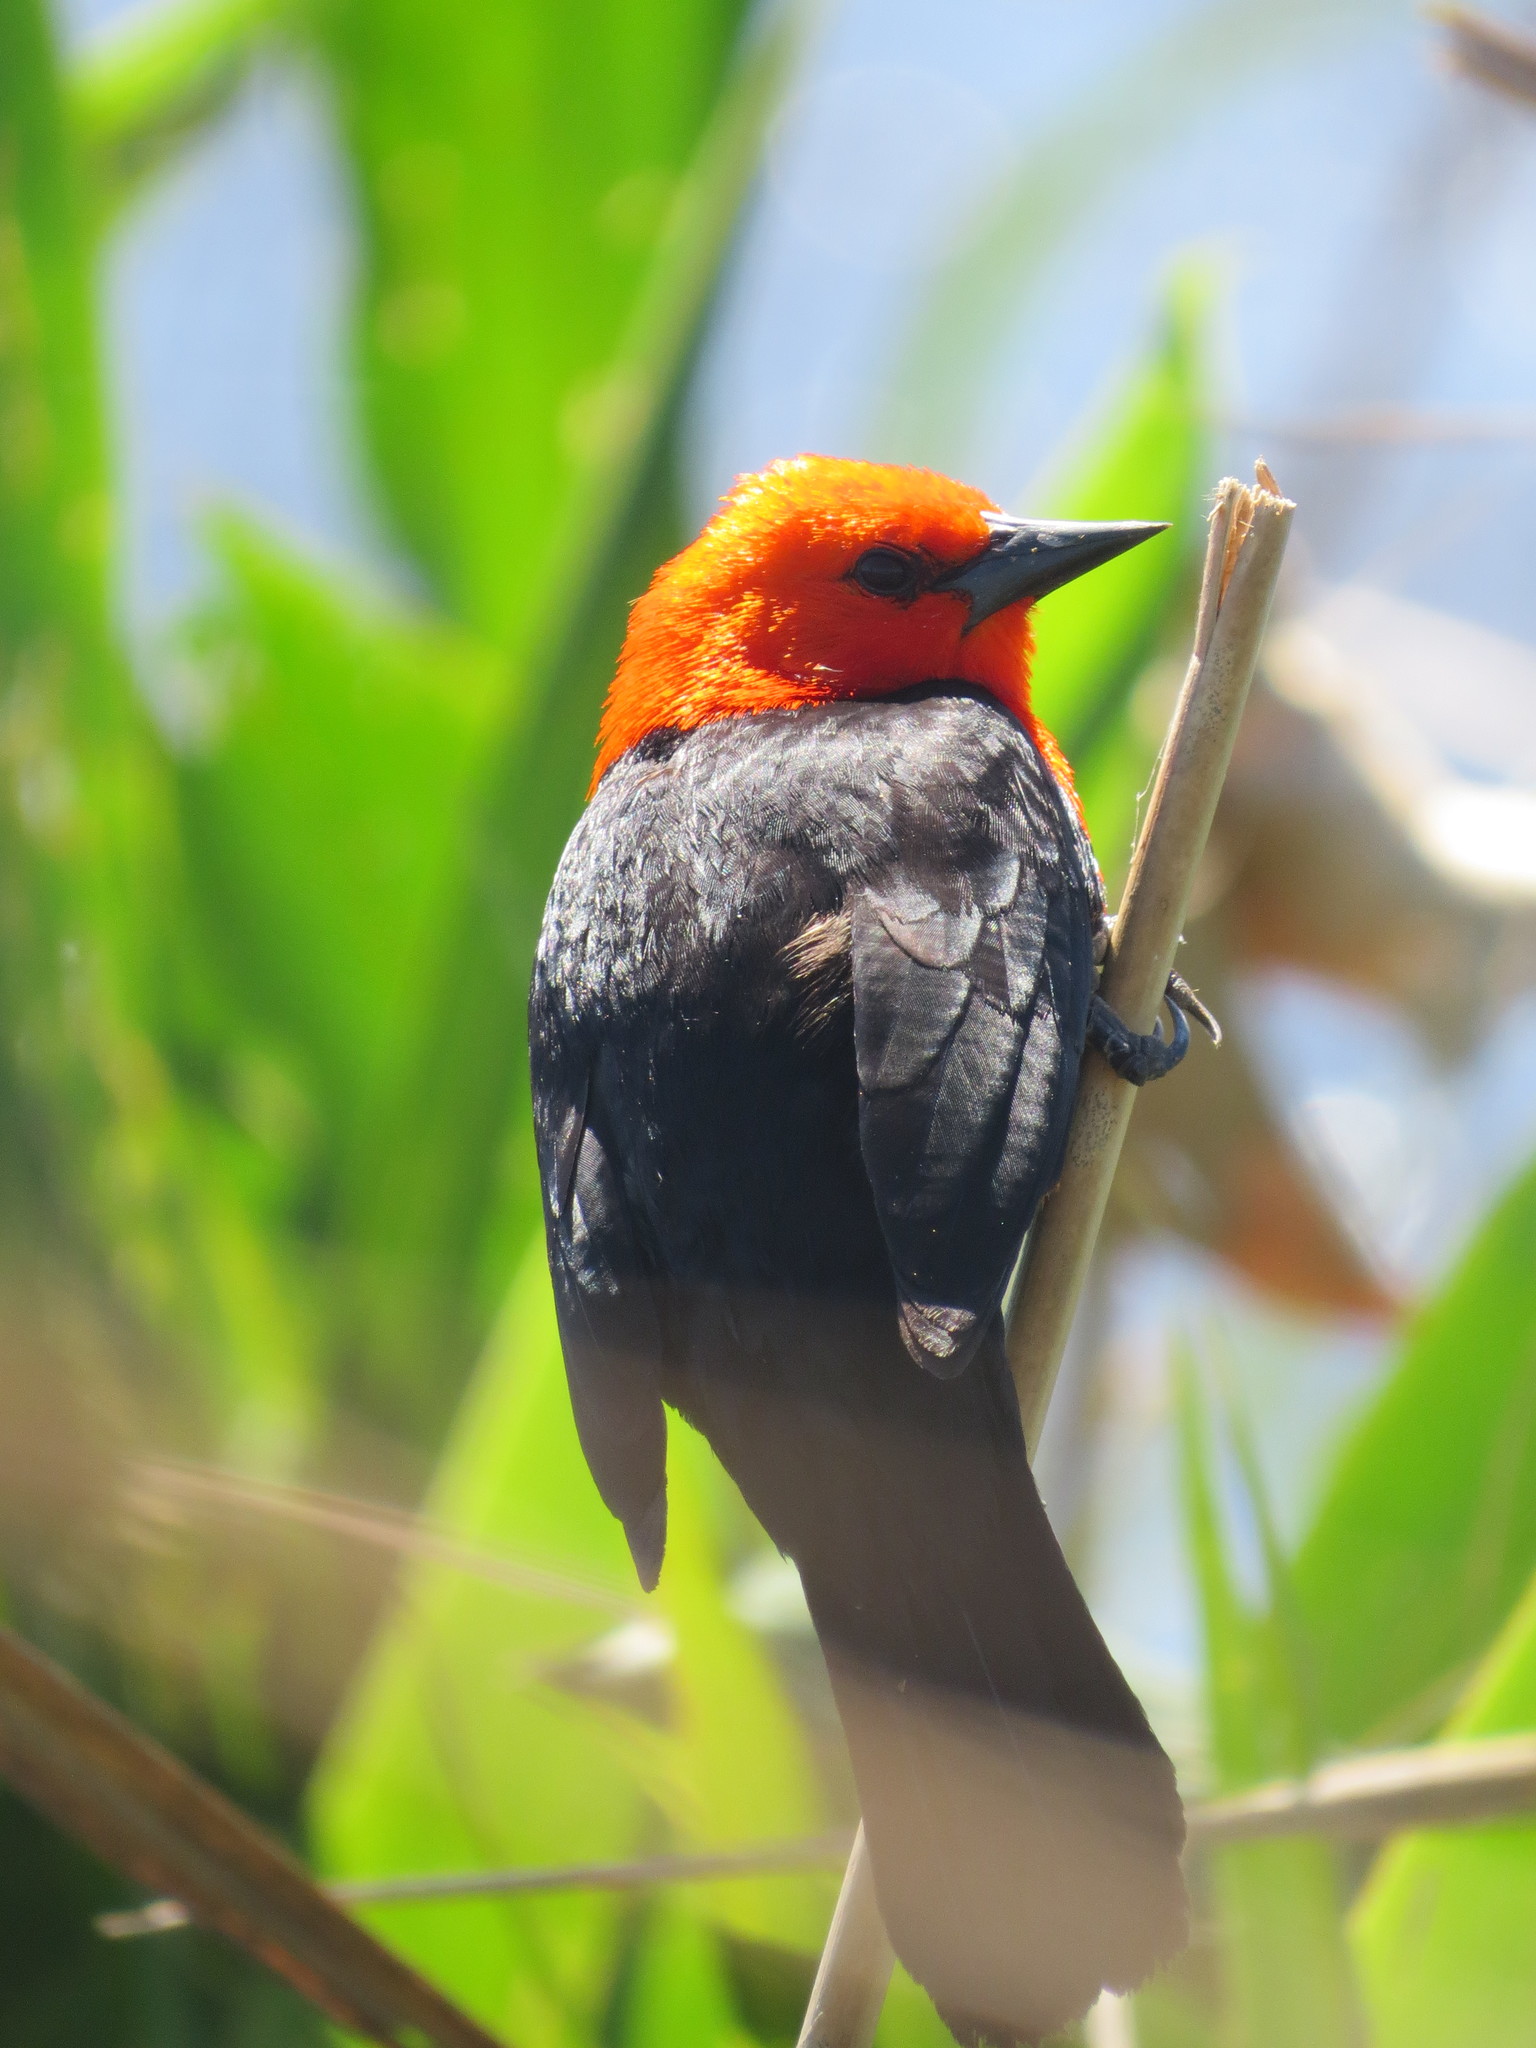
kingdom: Animalia
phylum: Chordata
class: Aves
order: Passeriformes
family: Icteridae
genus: Amblyramphus
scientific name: Amblyramphus holosericeus
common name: Scarlet-headed blackbird
